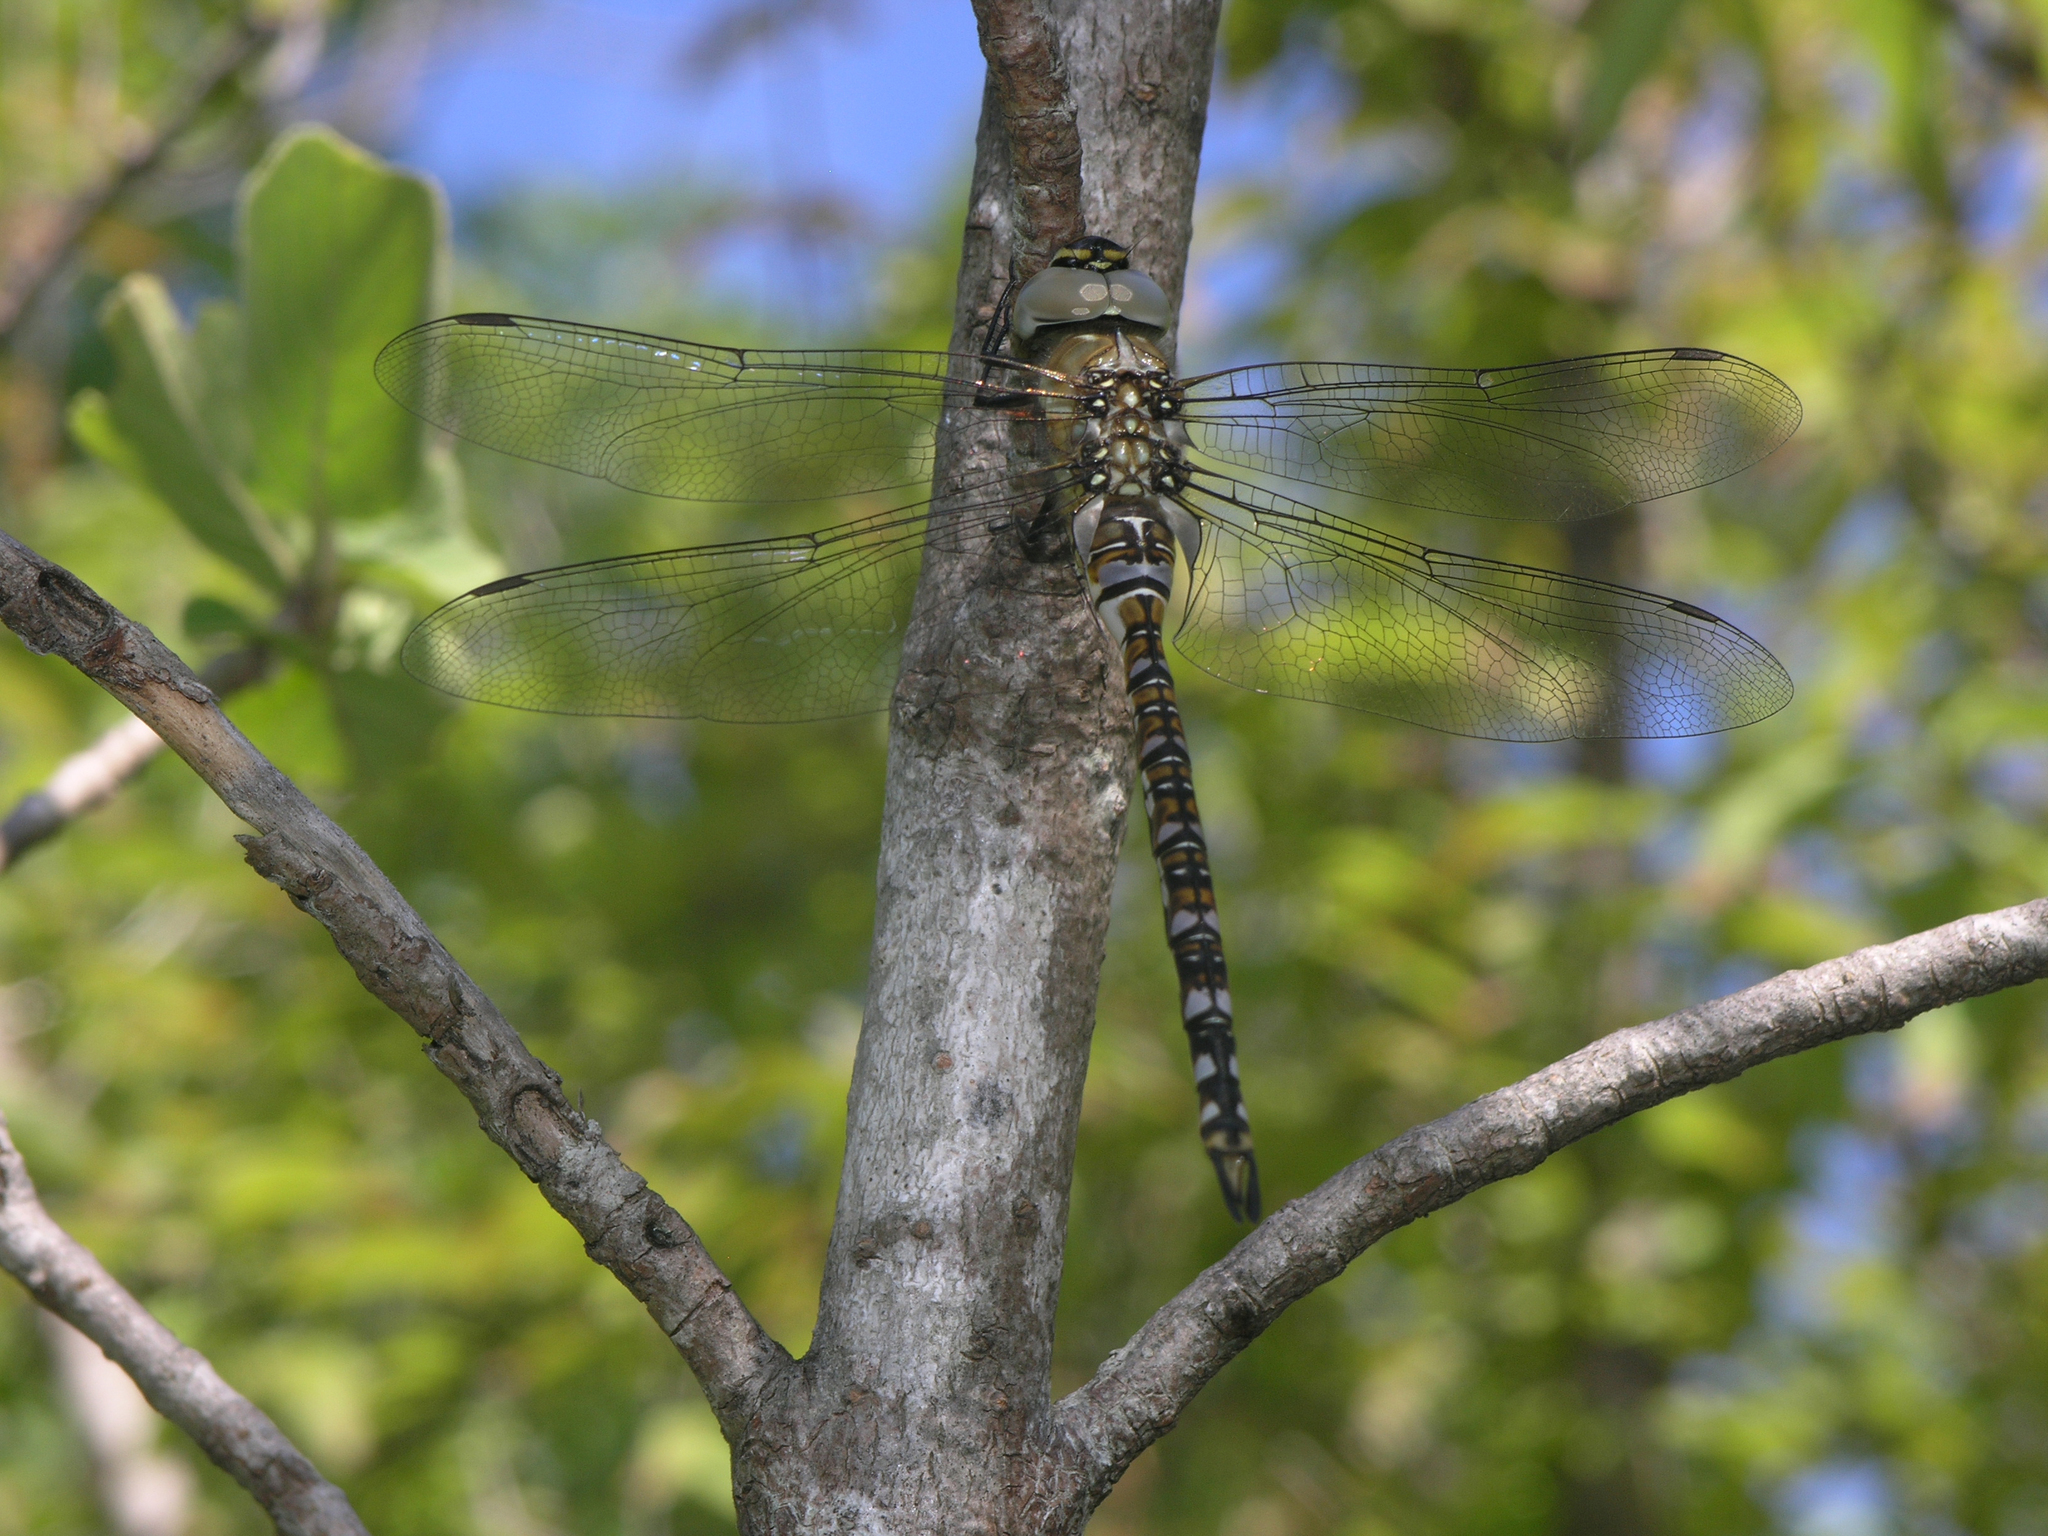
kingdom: Animalia
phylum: Arthropoda
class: Insecta
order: Odonata
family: Aeshnidae
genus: Aeshna
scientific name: Aeshna mixta
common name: Migrant hawker
